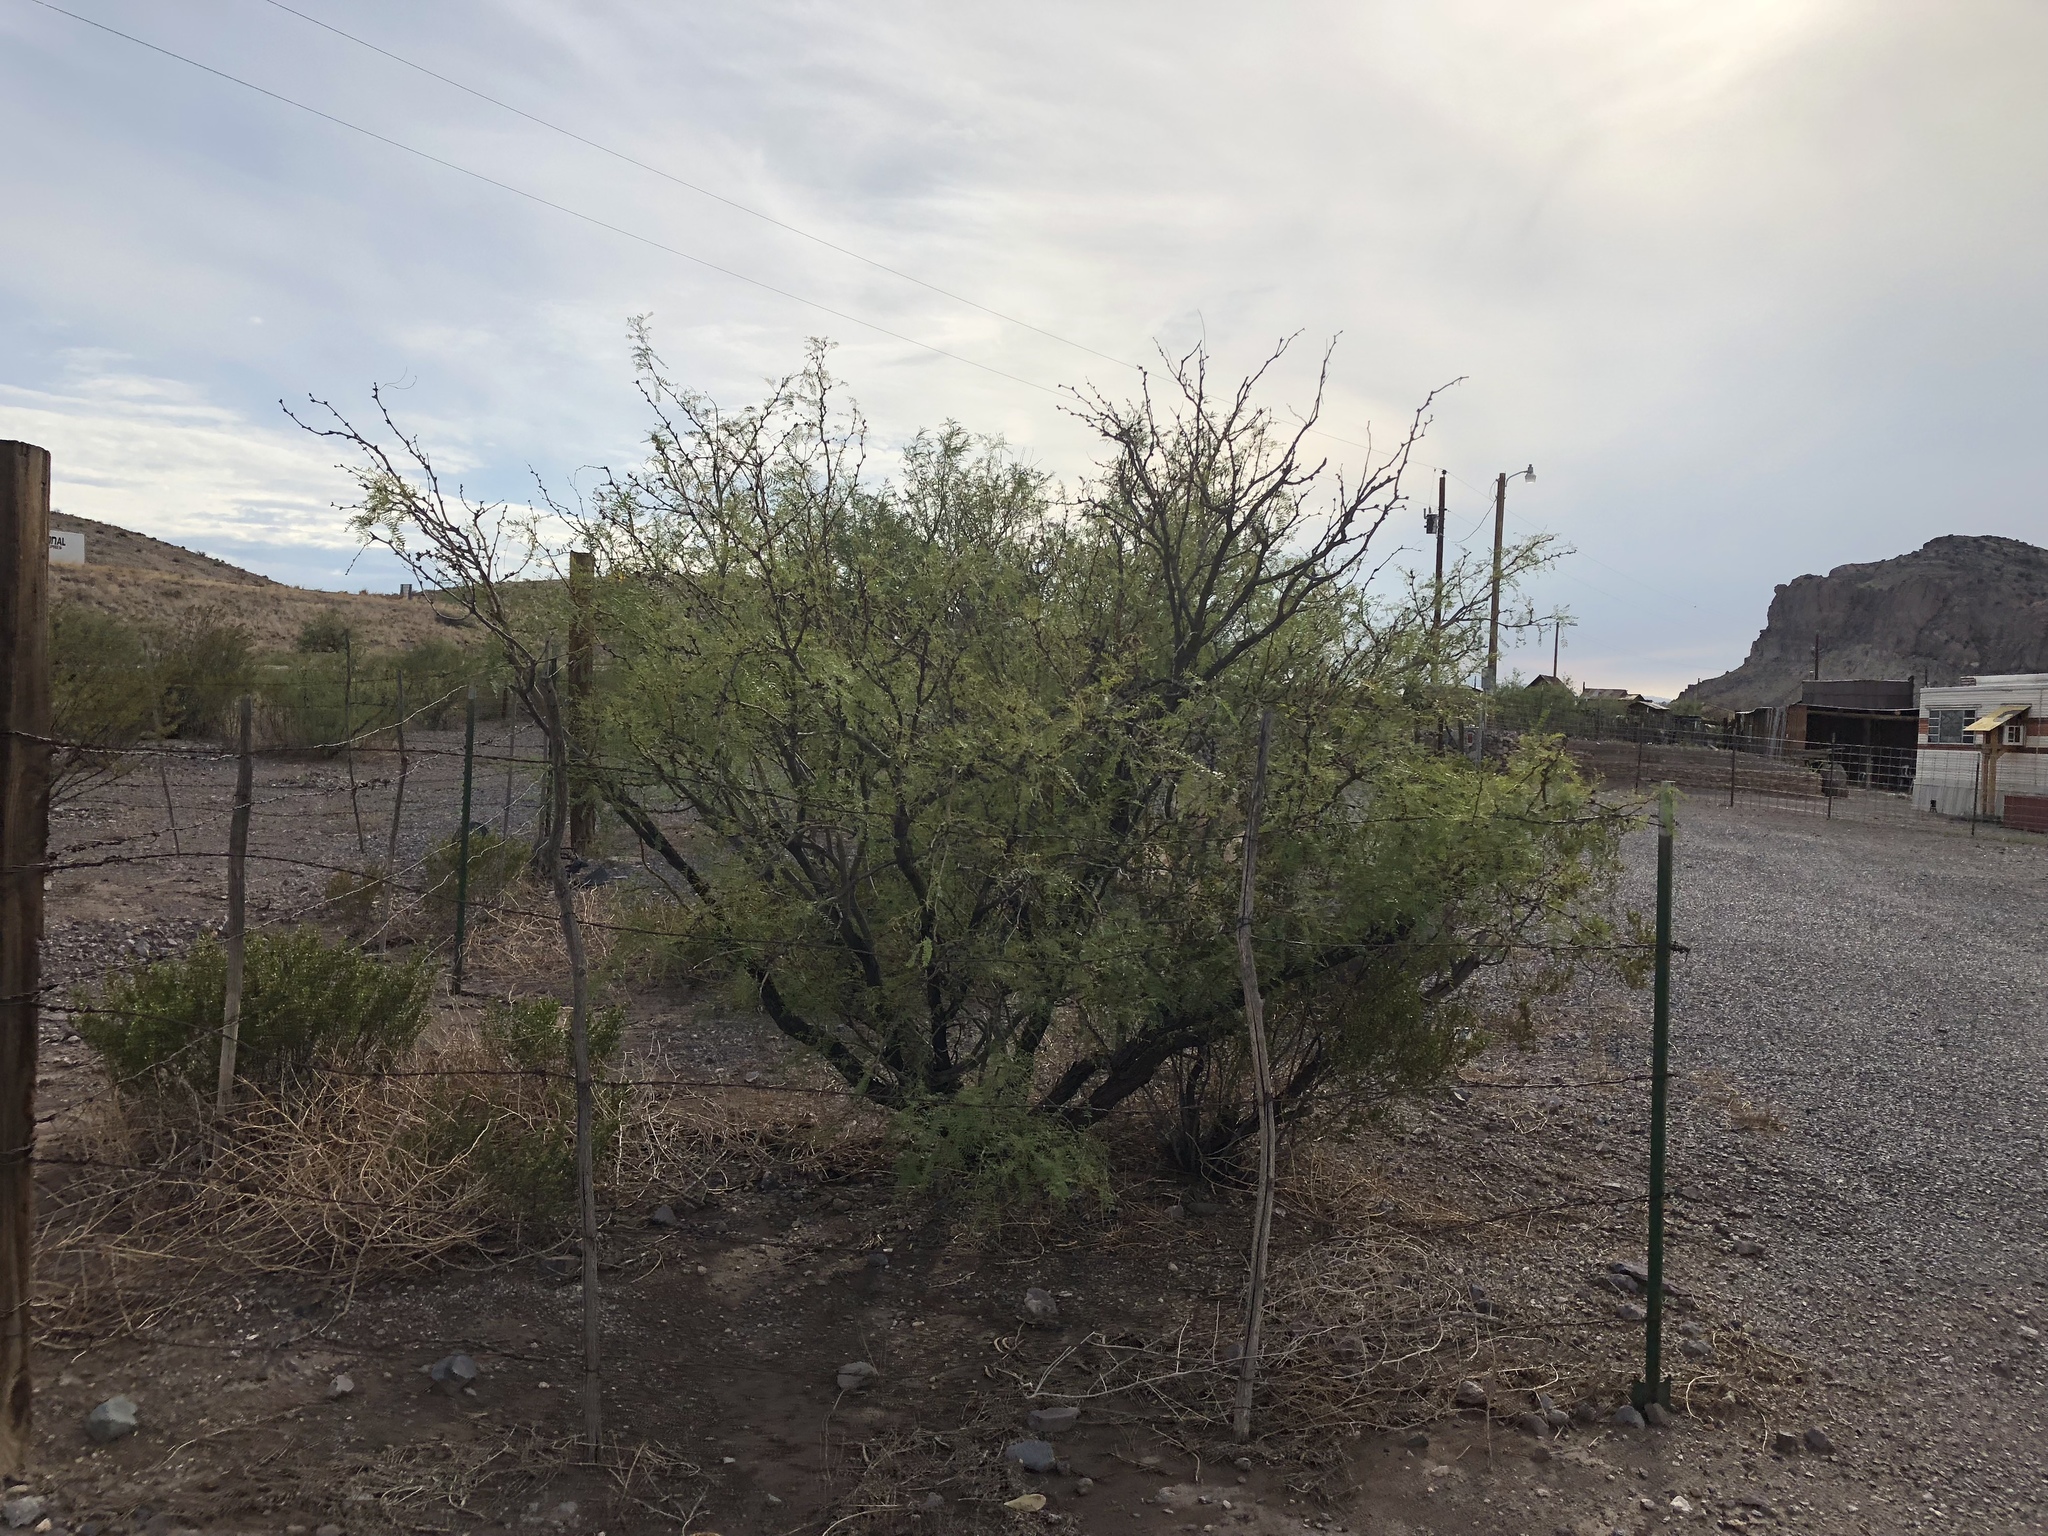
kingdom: Plantae
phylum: Tracheophyta
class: Magnoliopsida
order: Fabales
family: Fabaceae
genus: Prosopis
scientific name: Prosopis glandulosa
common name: Honey mesquite
